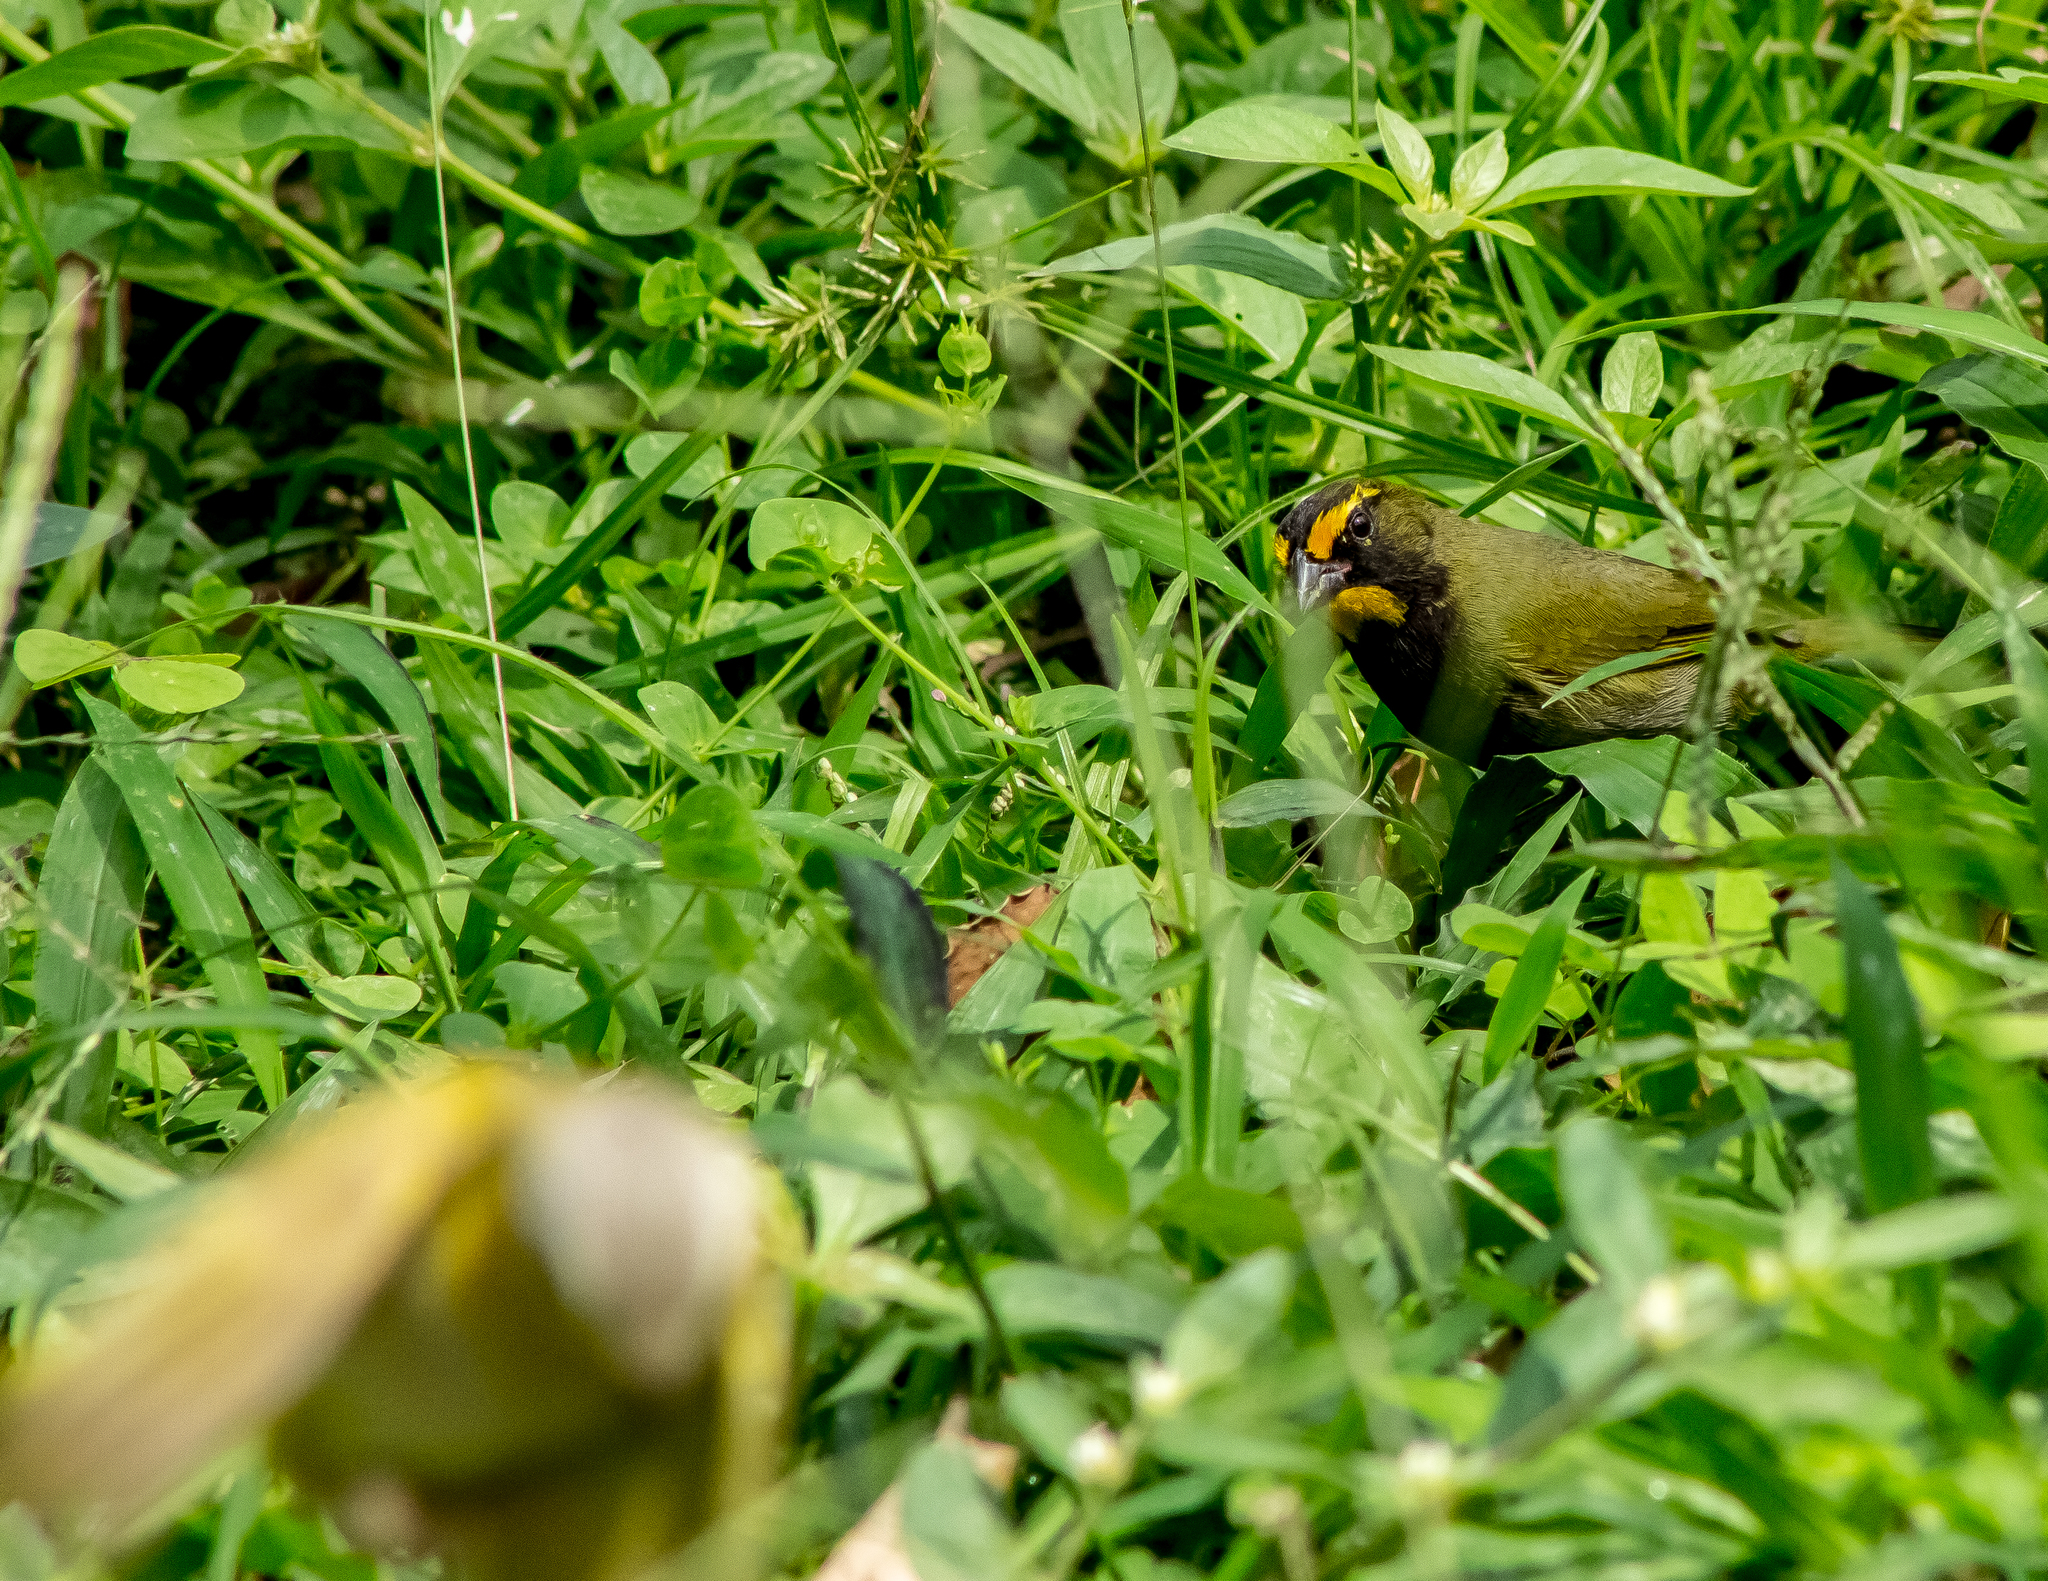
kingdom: Animalia
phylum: Chordata
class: Aves
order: Passeriformes
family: Thraupidae
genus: Tiaris
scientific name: Tiaris olivaceus
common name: Yellow-faced grassquit
